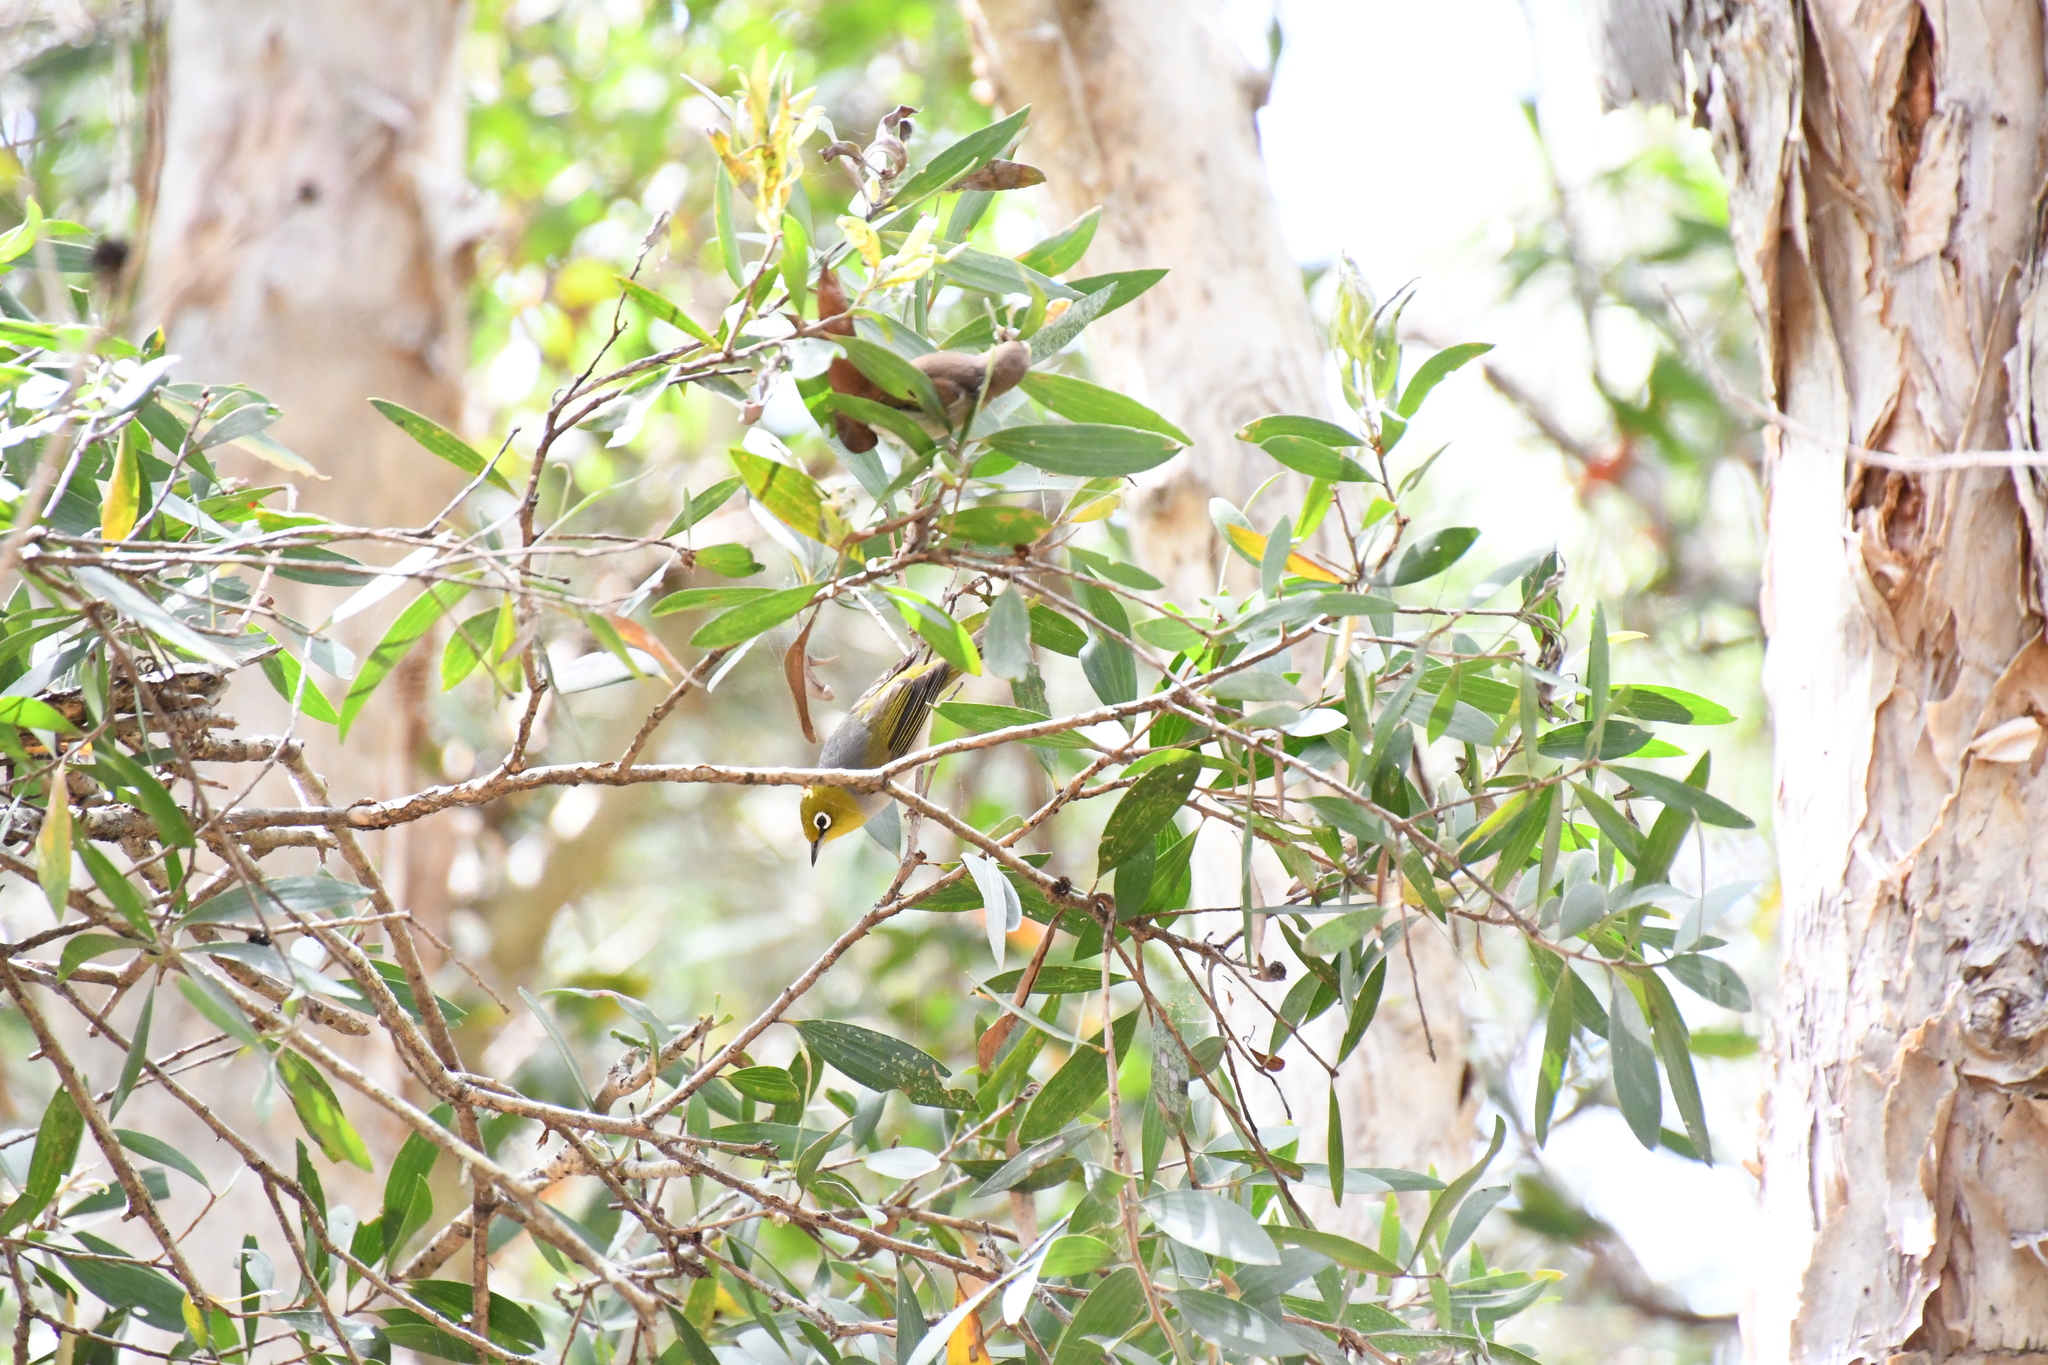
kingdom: Animalia
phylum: Chordata
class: Aves
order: Passeriformes
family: Zosteropidae
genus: Zosterops
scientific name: Zosterops lateralis
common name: Silvereye
